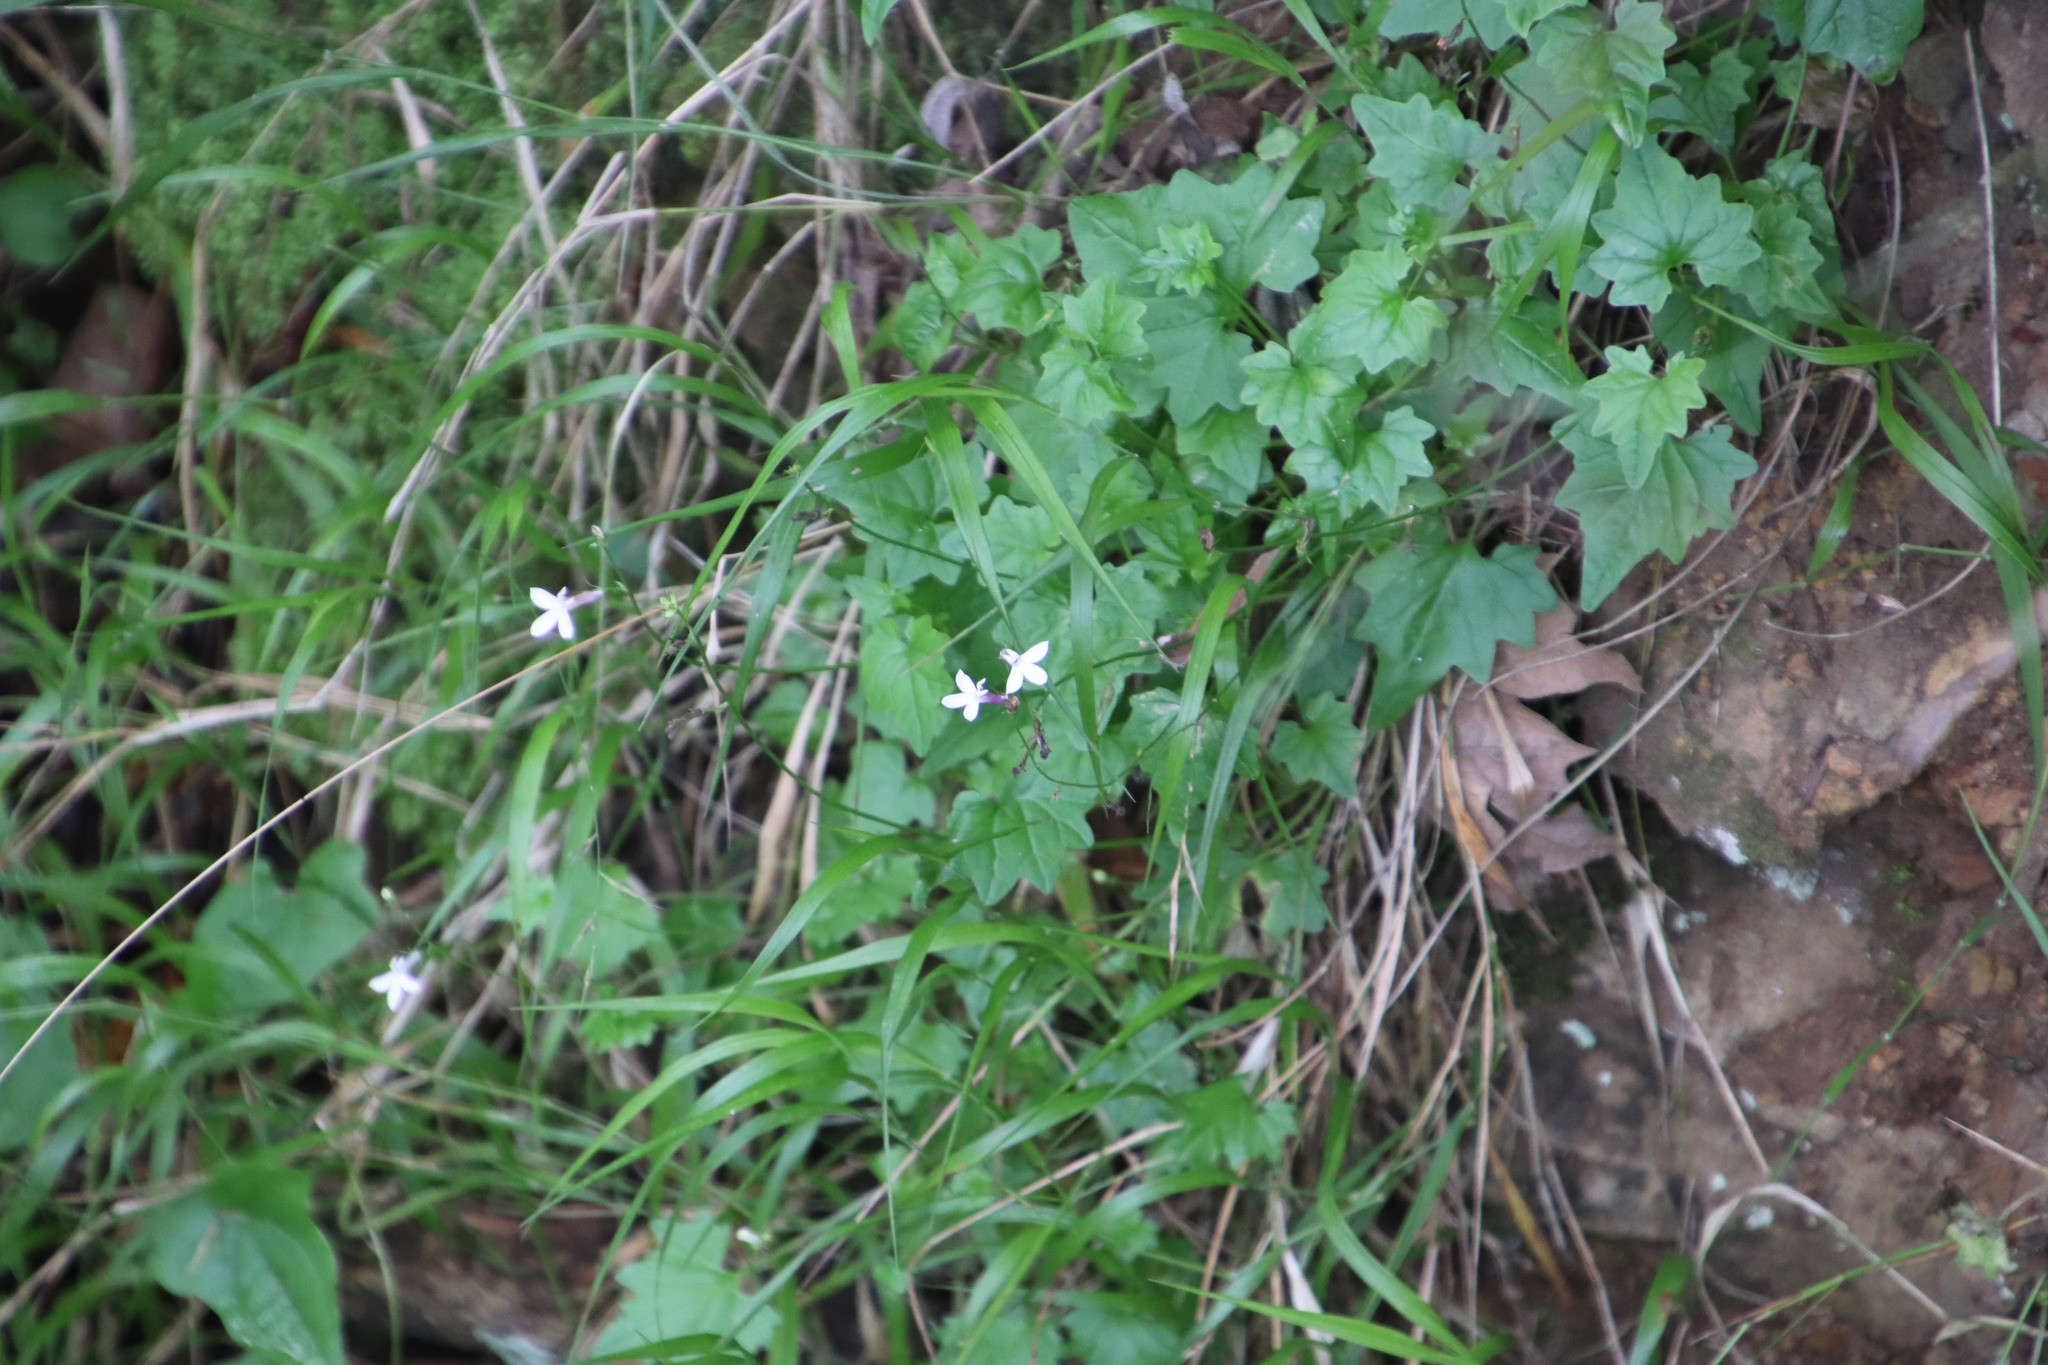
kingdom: Plantae
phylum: Tracheophyta
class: Magnoliopsida
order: Asterales
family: Campanulaceae
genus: Lobelia
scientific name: Lobelia vanreenensis
